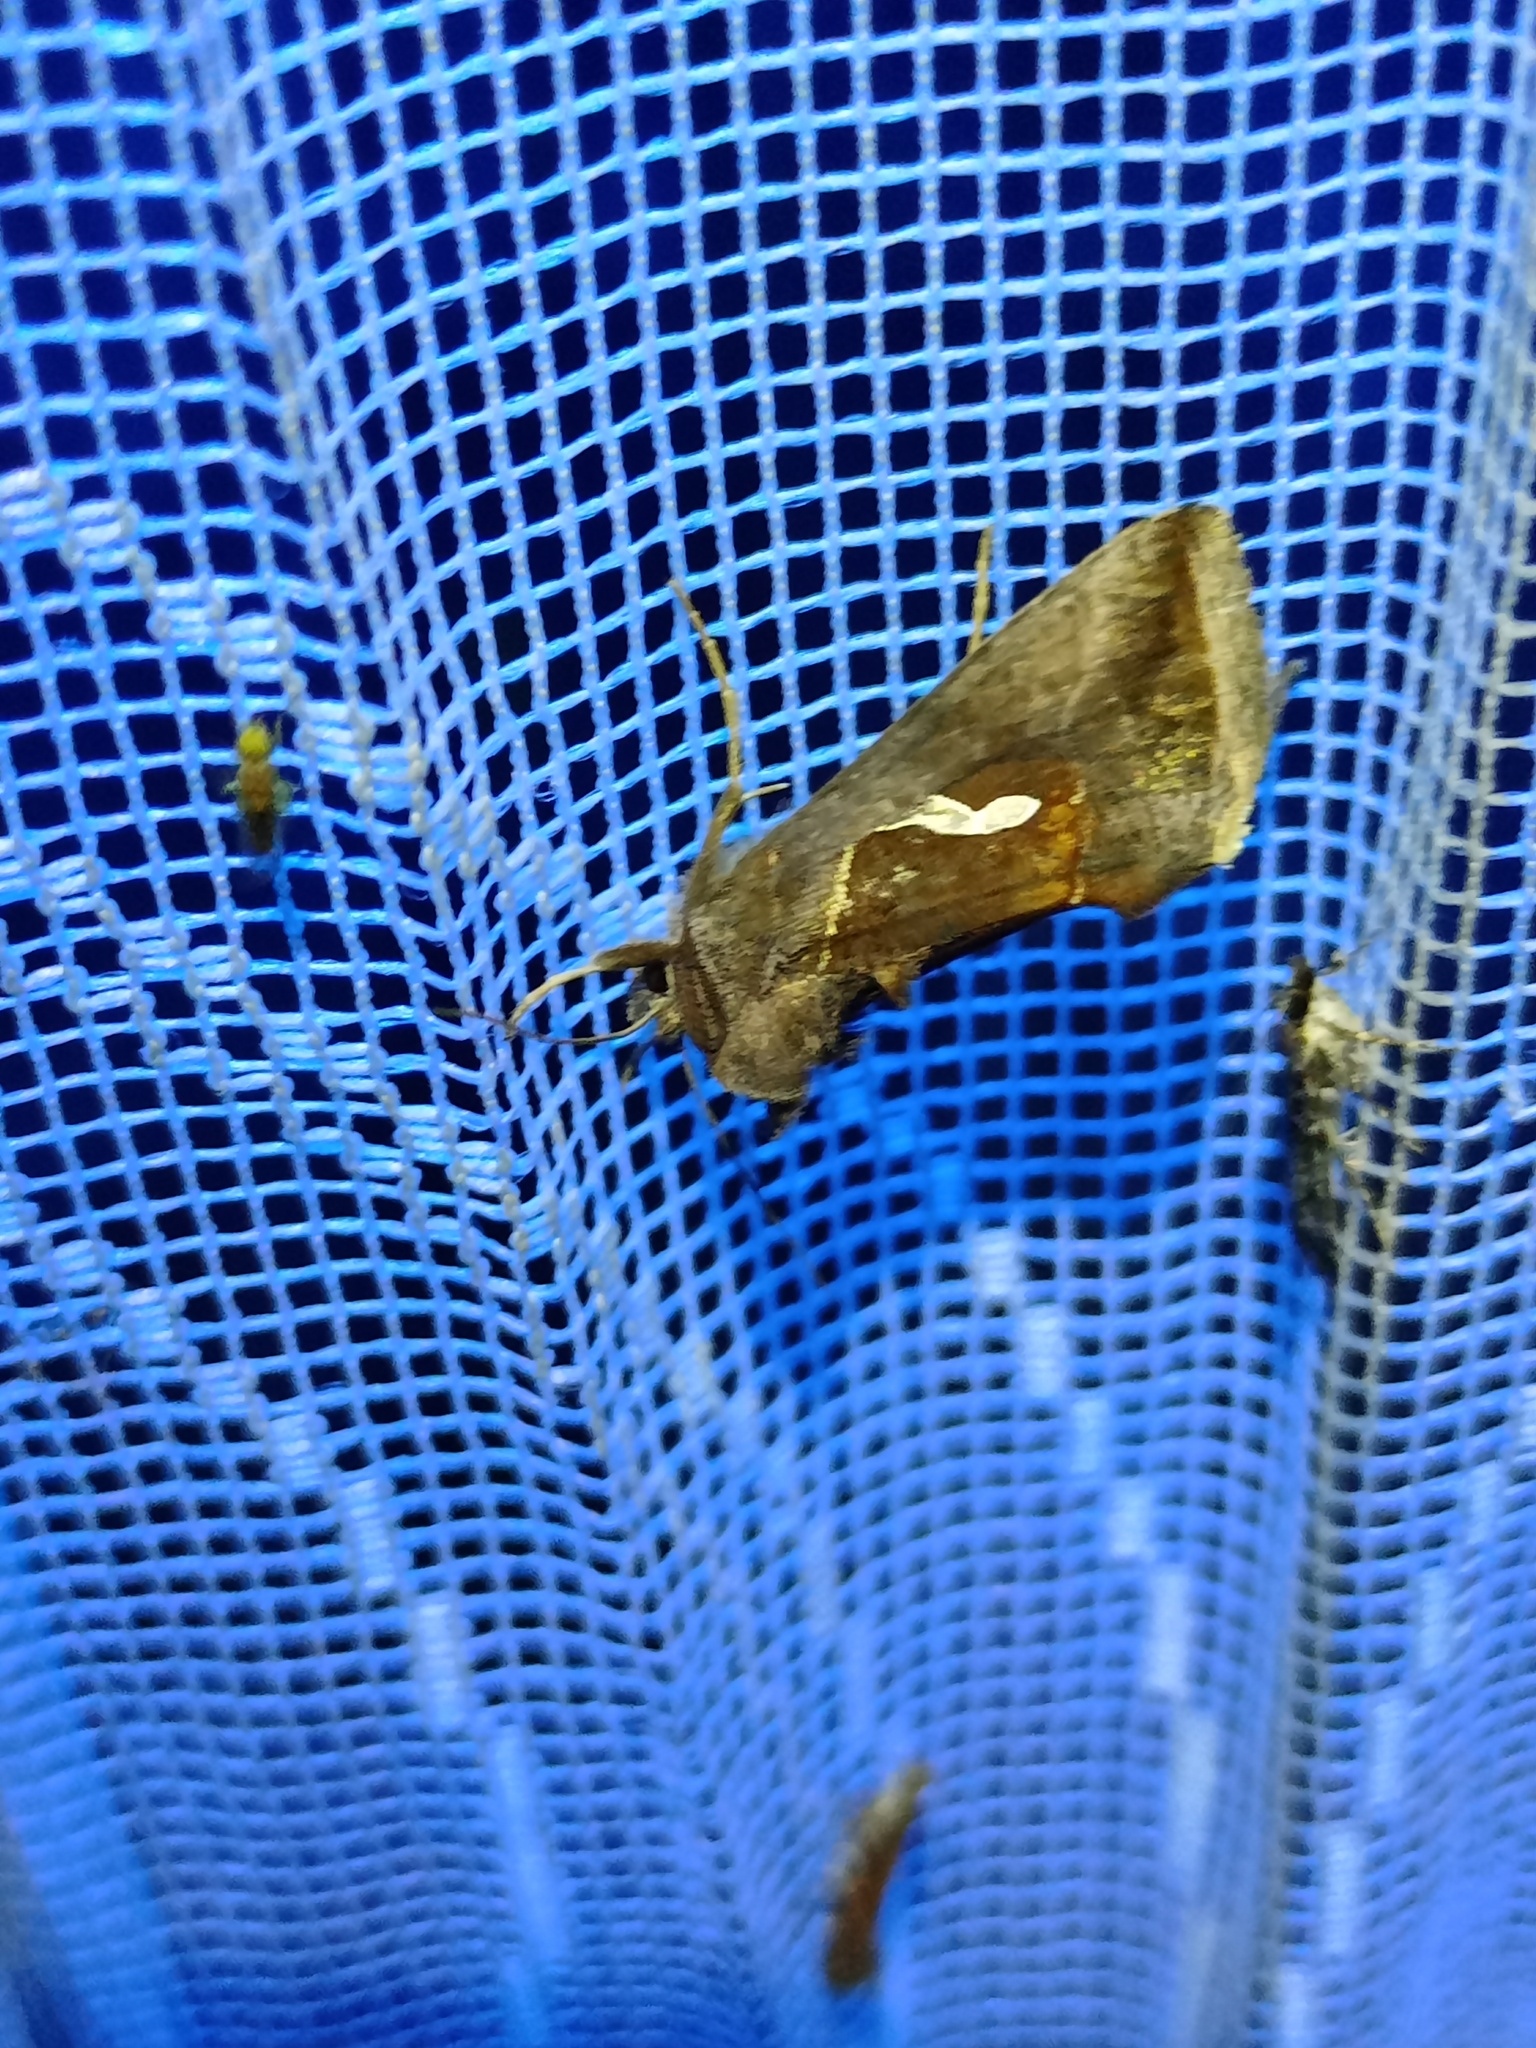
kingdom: Animalia
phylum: Arthropoda
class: Insecta
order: Lepidoptera
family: Noctuidae
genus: Macdunnoughia
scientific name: Macdunnoughia confusa
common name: Dewick's plusia
